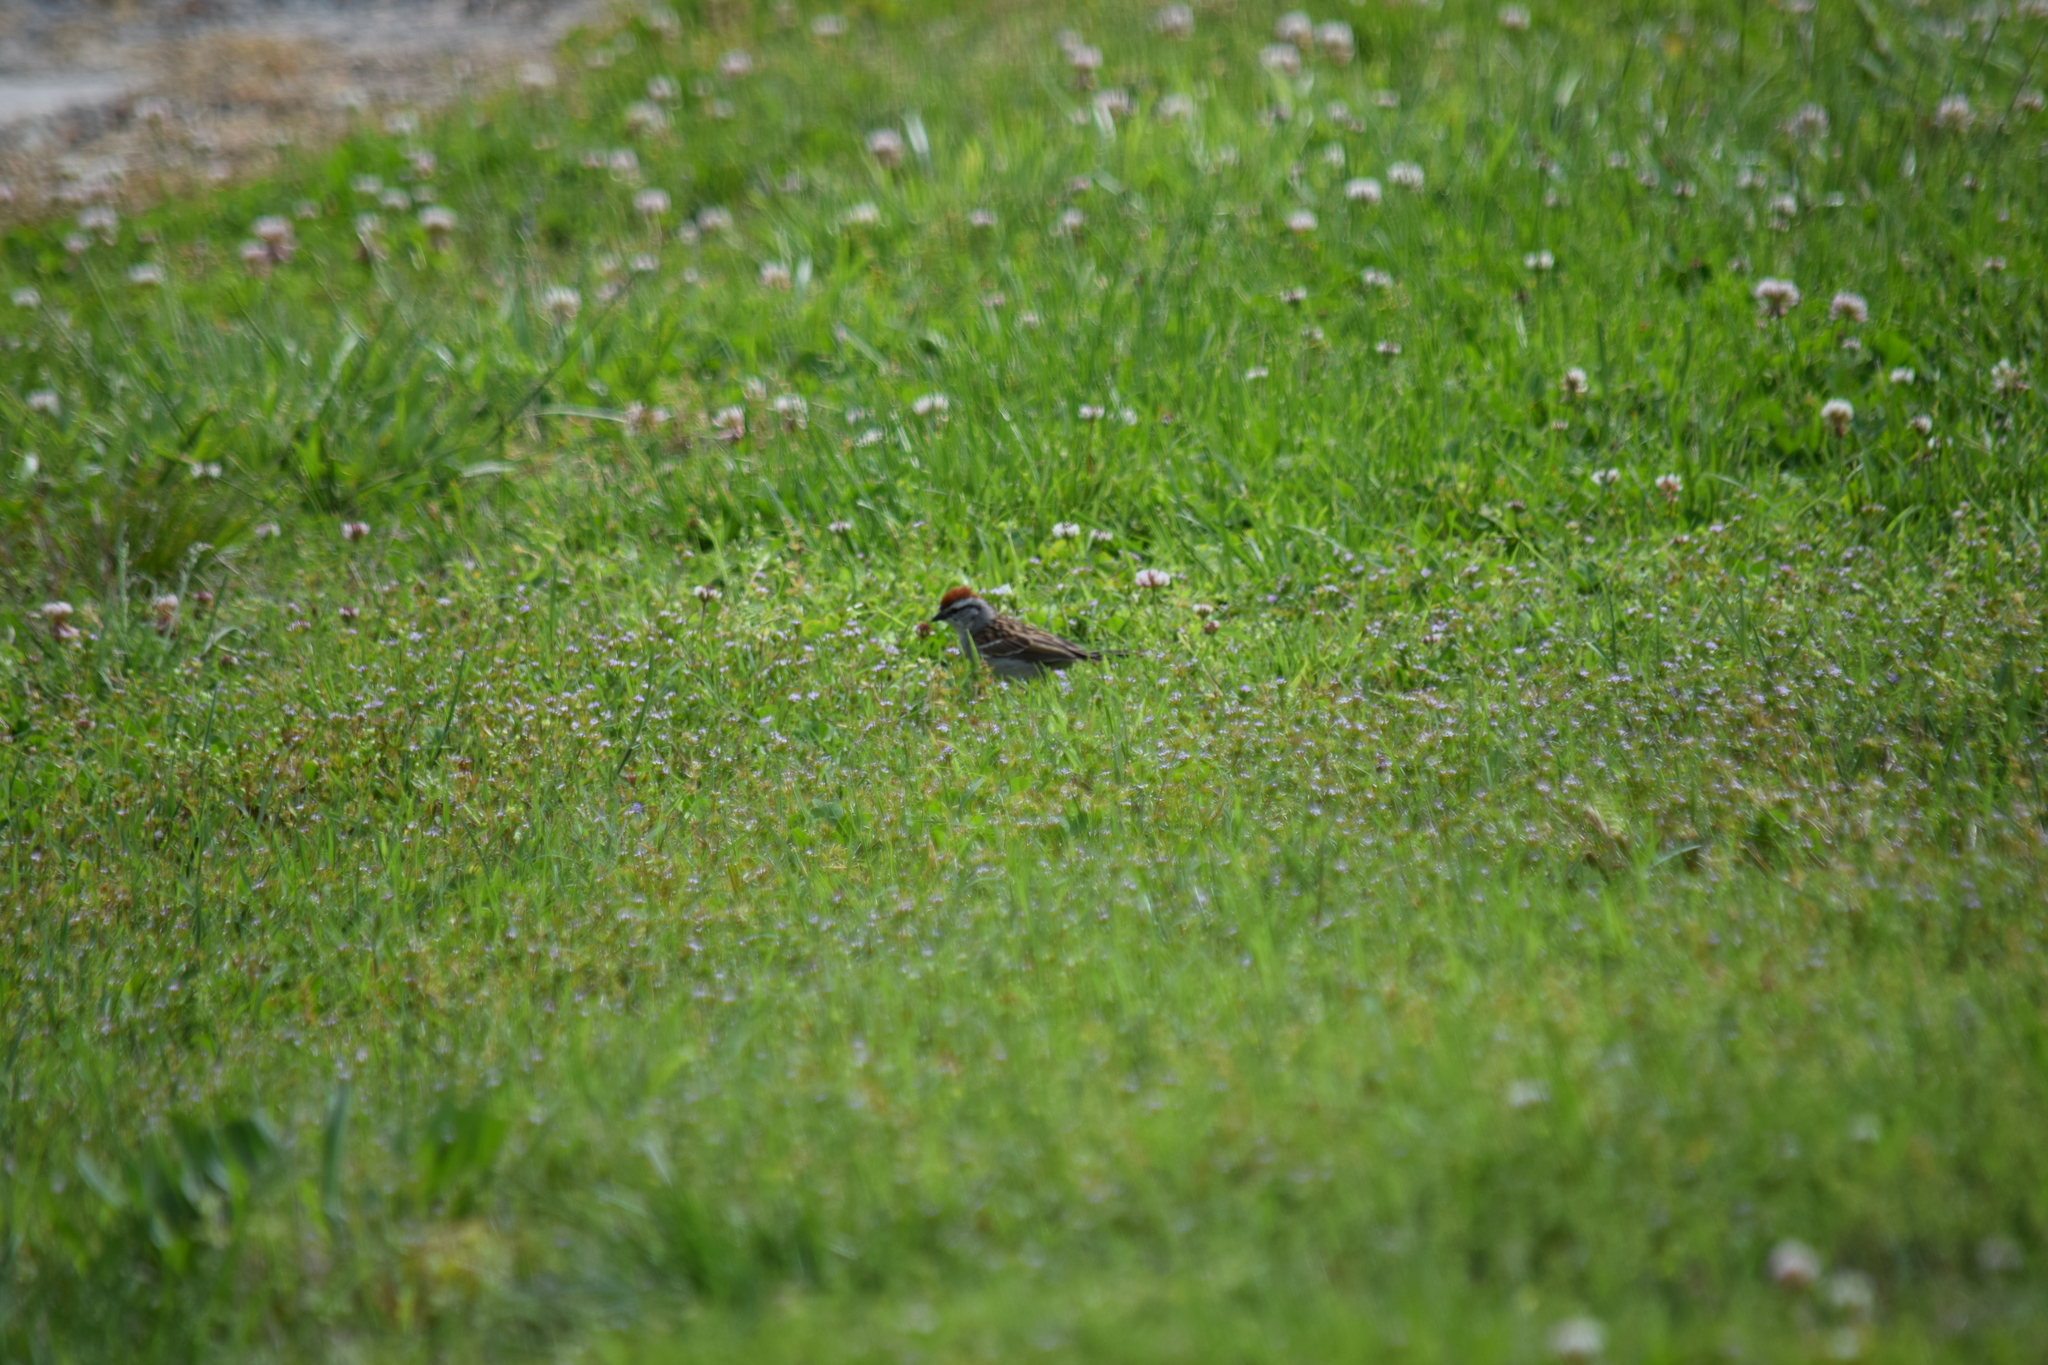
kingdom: Animalia
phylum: Chordata
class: Aves
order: Passeriformes
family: Passerellidae
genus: Spizella
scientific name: Spizella passerina
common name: Chipping sparrow
